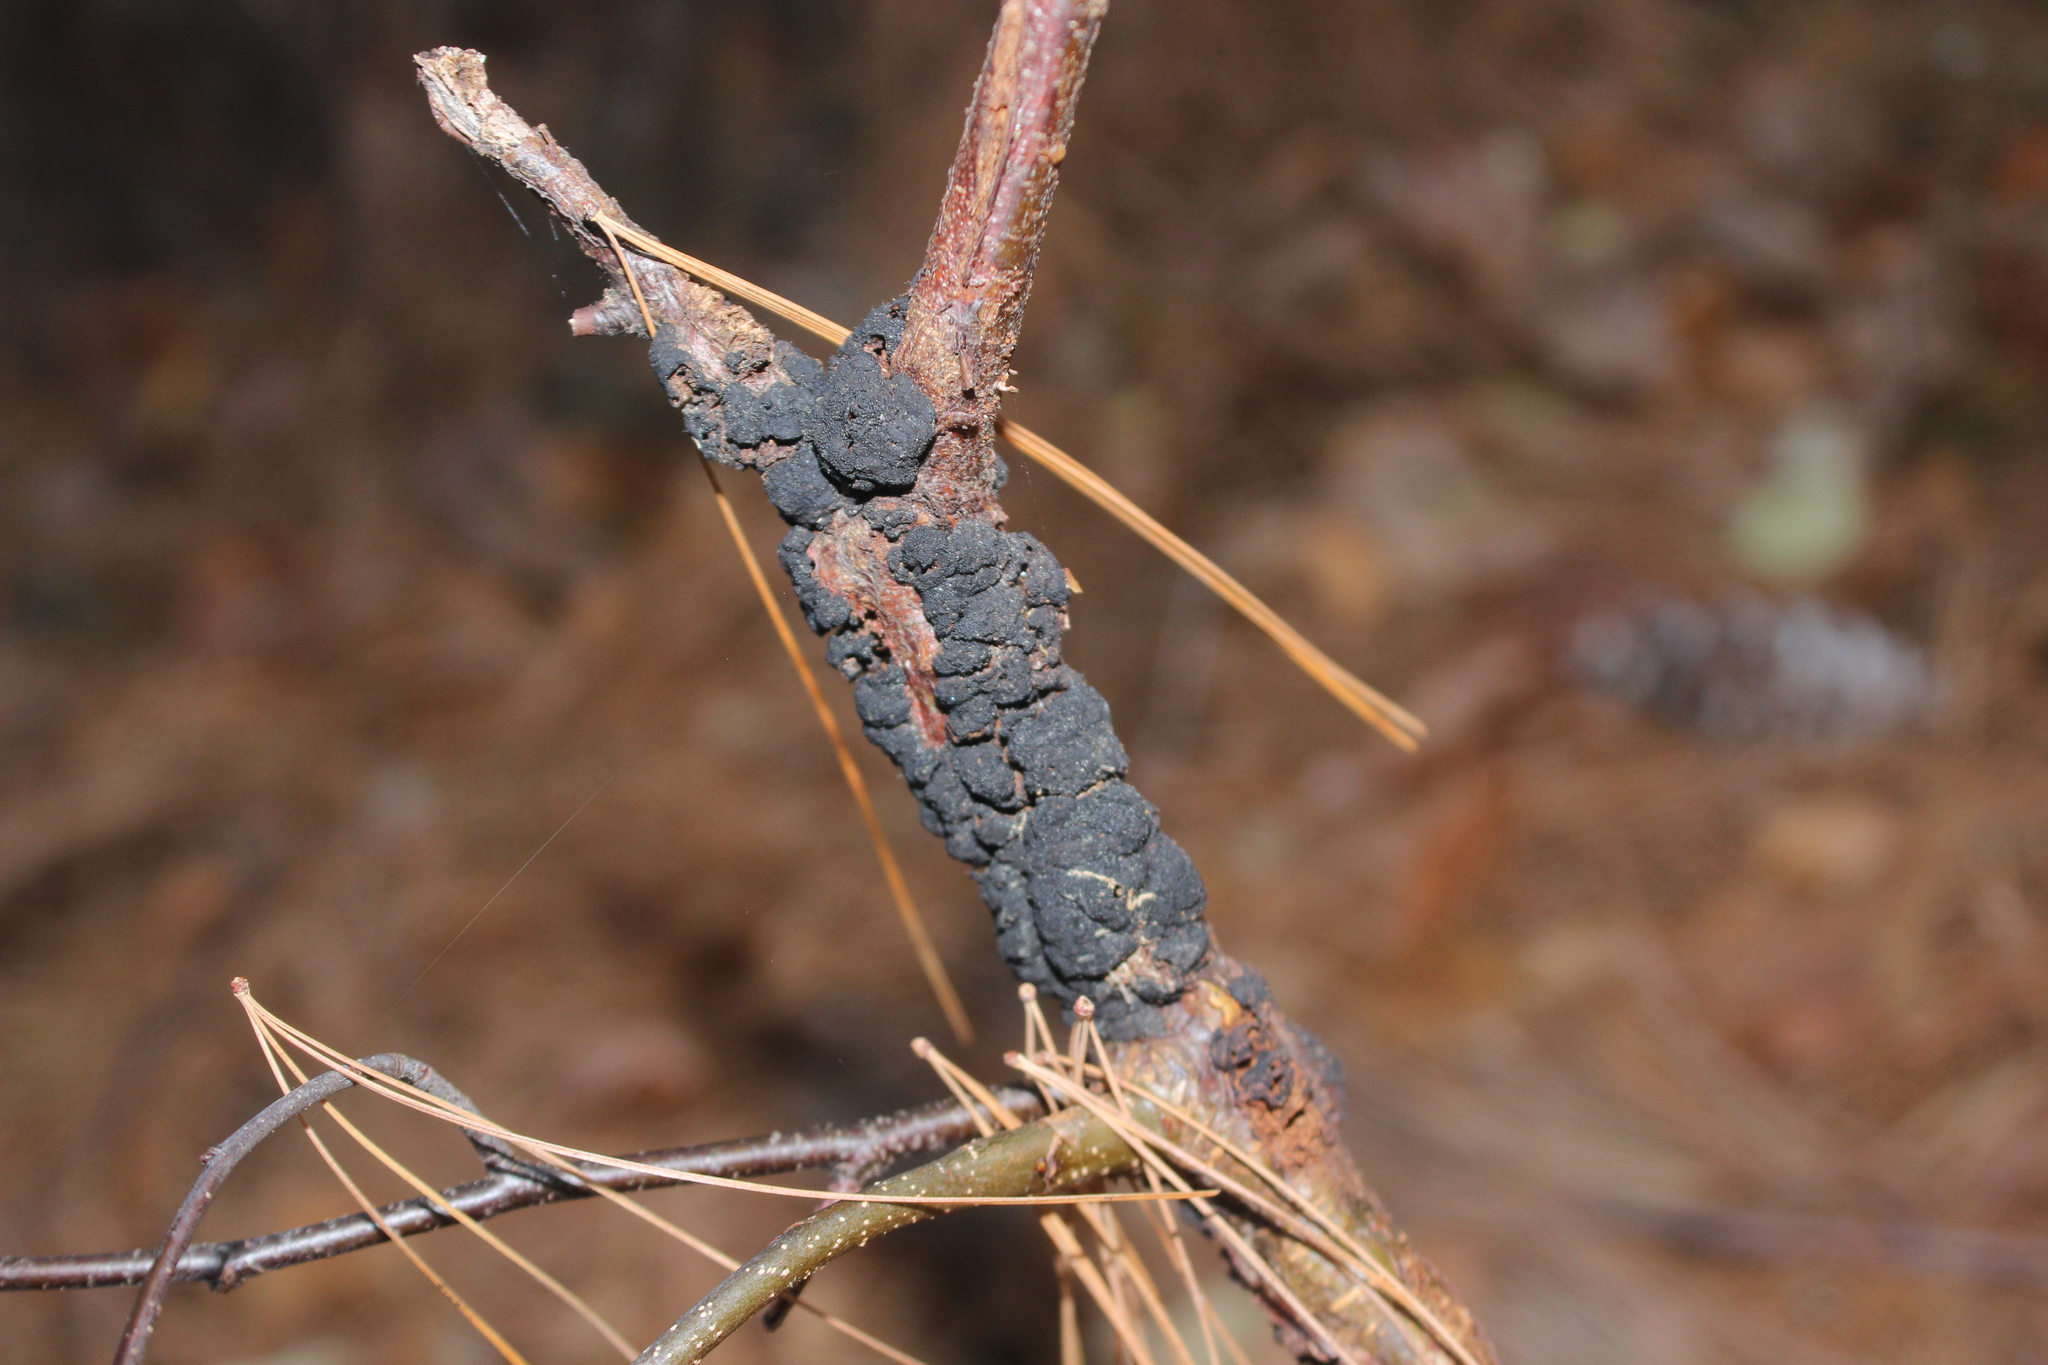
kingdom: Fungi
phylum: Ascomycota
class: Dothideomycetes
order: Venturiales
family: Venturiaceae
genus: Apiosporina
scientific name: Apiosporina morbosa
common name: Black knot
